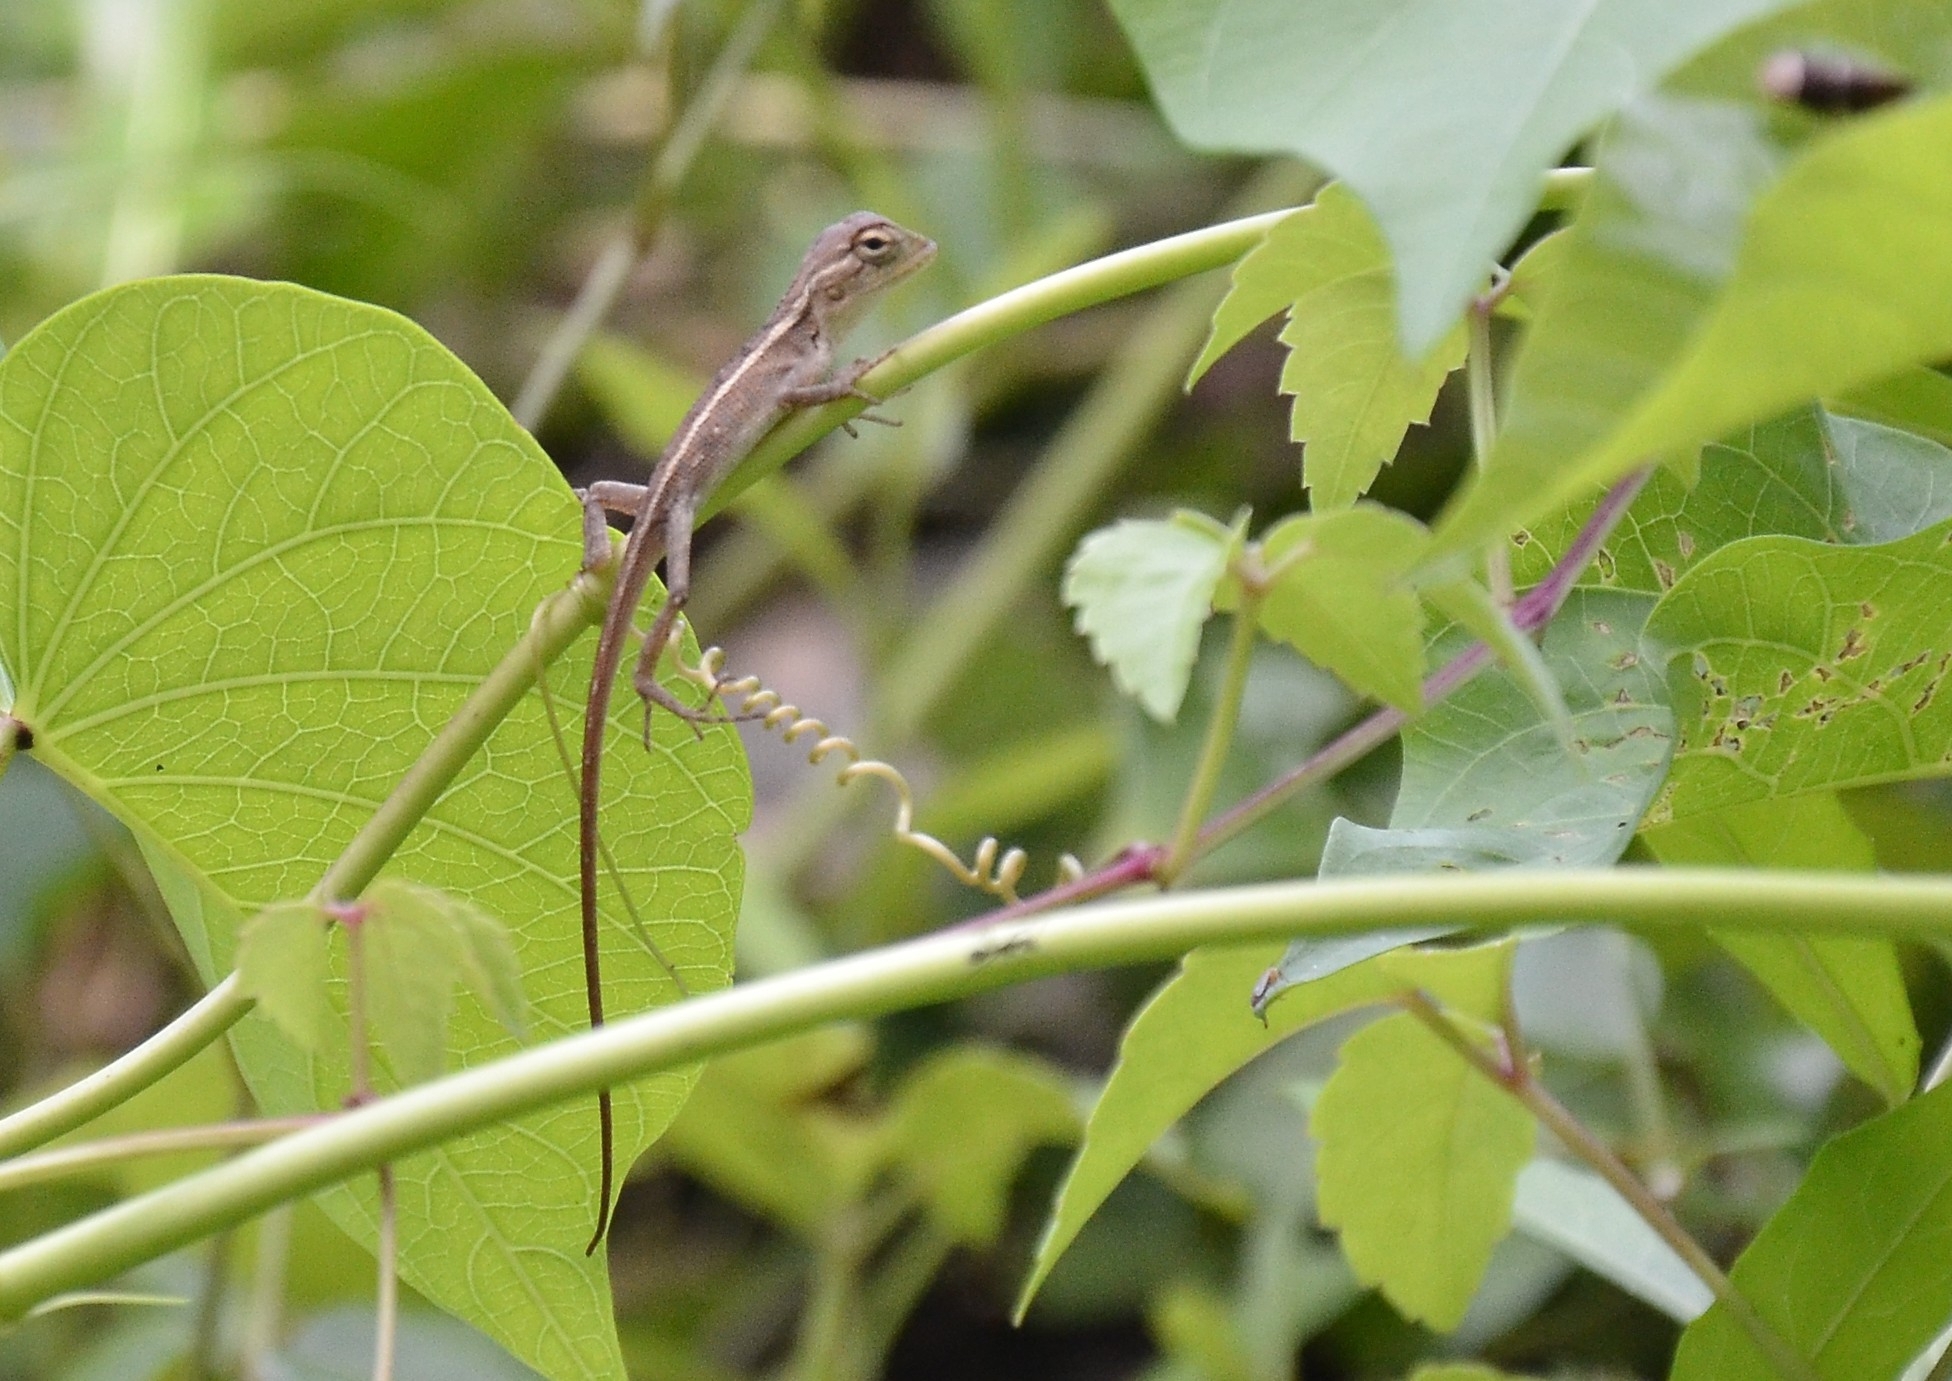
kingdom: Animalia
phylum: Chordata
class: Squamata
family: Agamidae
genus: Calotes
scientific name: Calotes versicolor
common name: Oriental garden lizard
